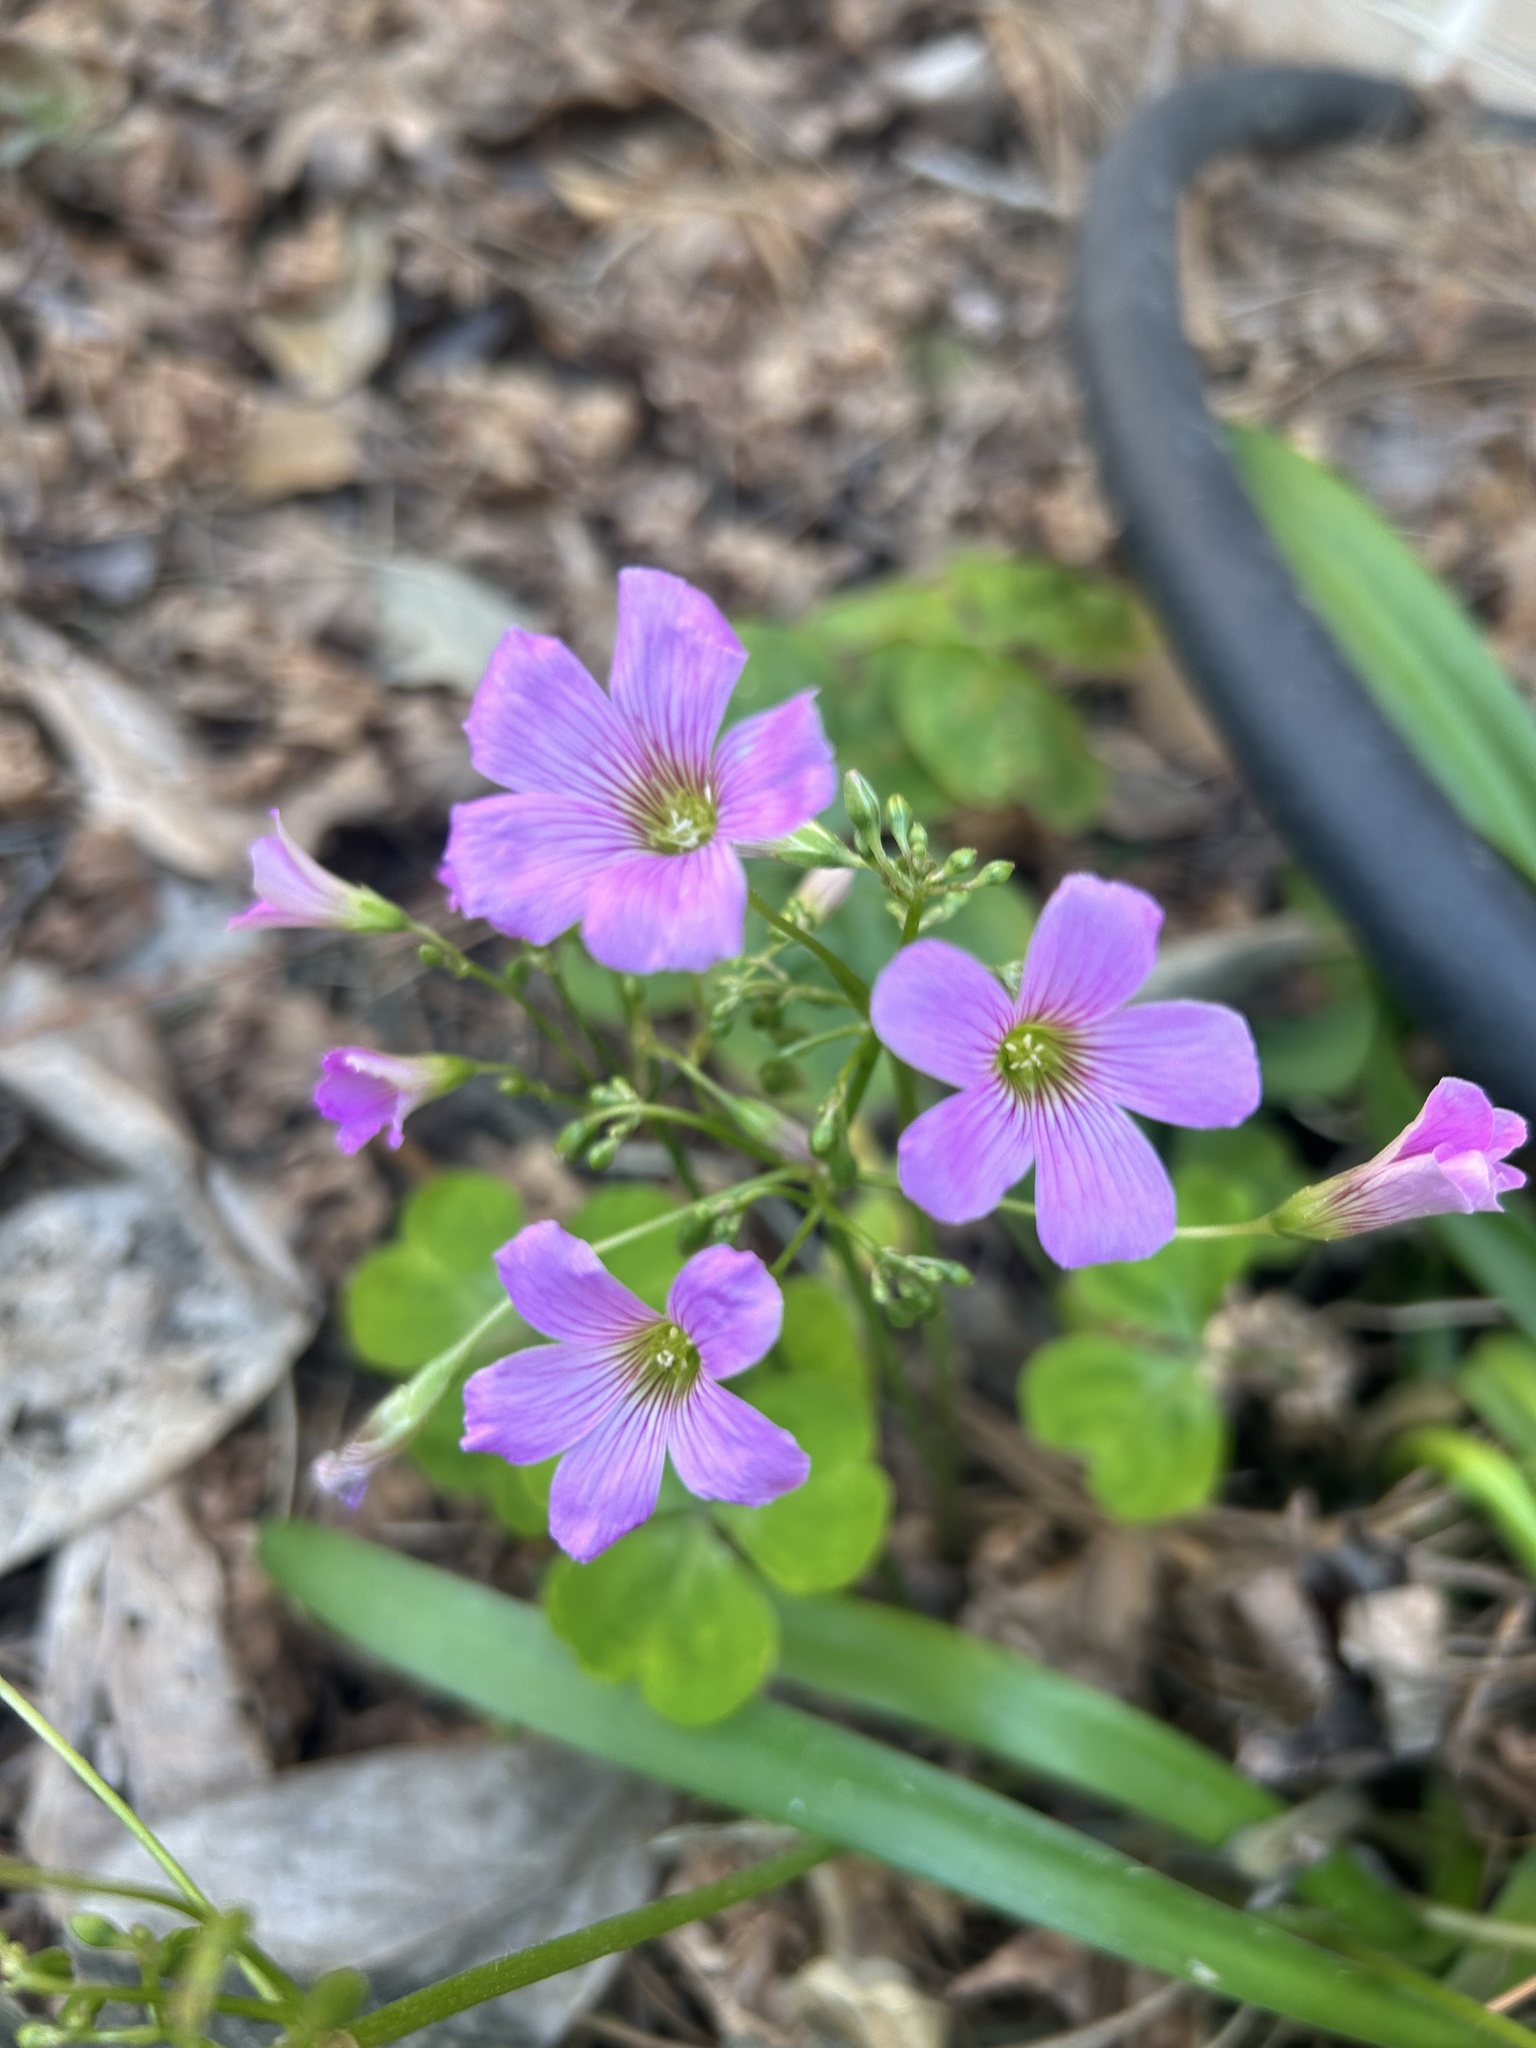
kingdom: Plantae
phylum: Tracheophyta
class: Magnoliopsida
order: Oxalidales
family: Oxalidaceae
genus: Oxalis
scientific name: Oxalis debilis
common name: Large-flowered pink-sorrel
